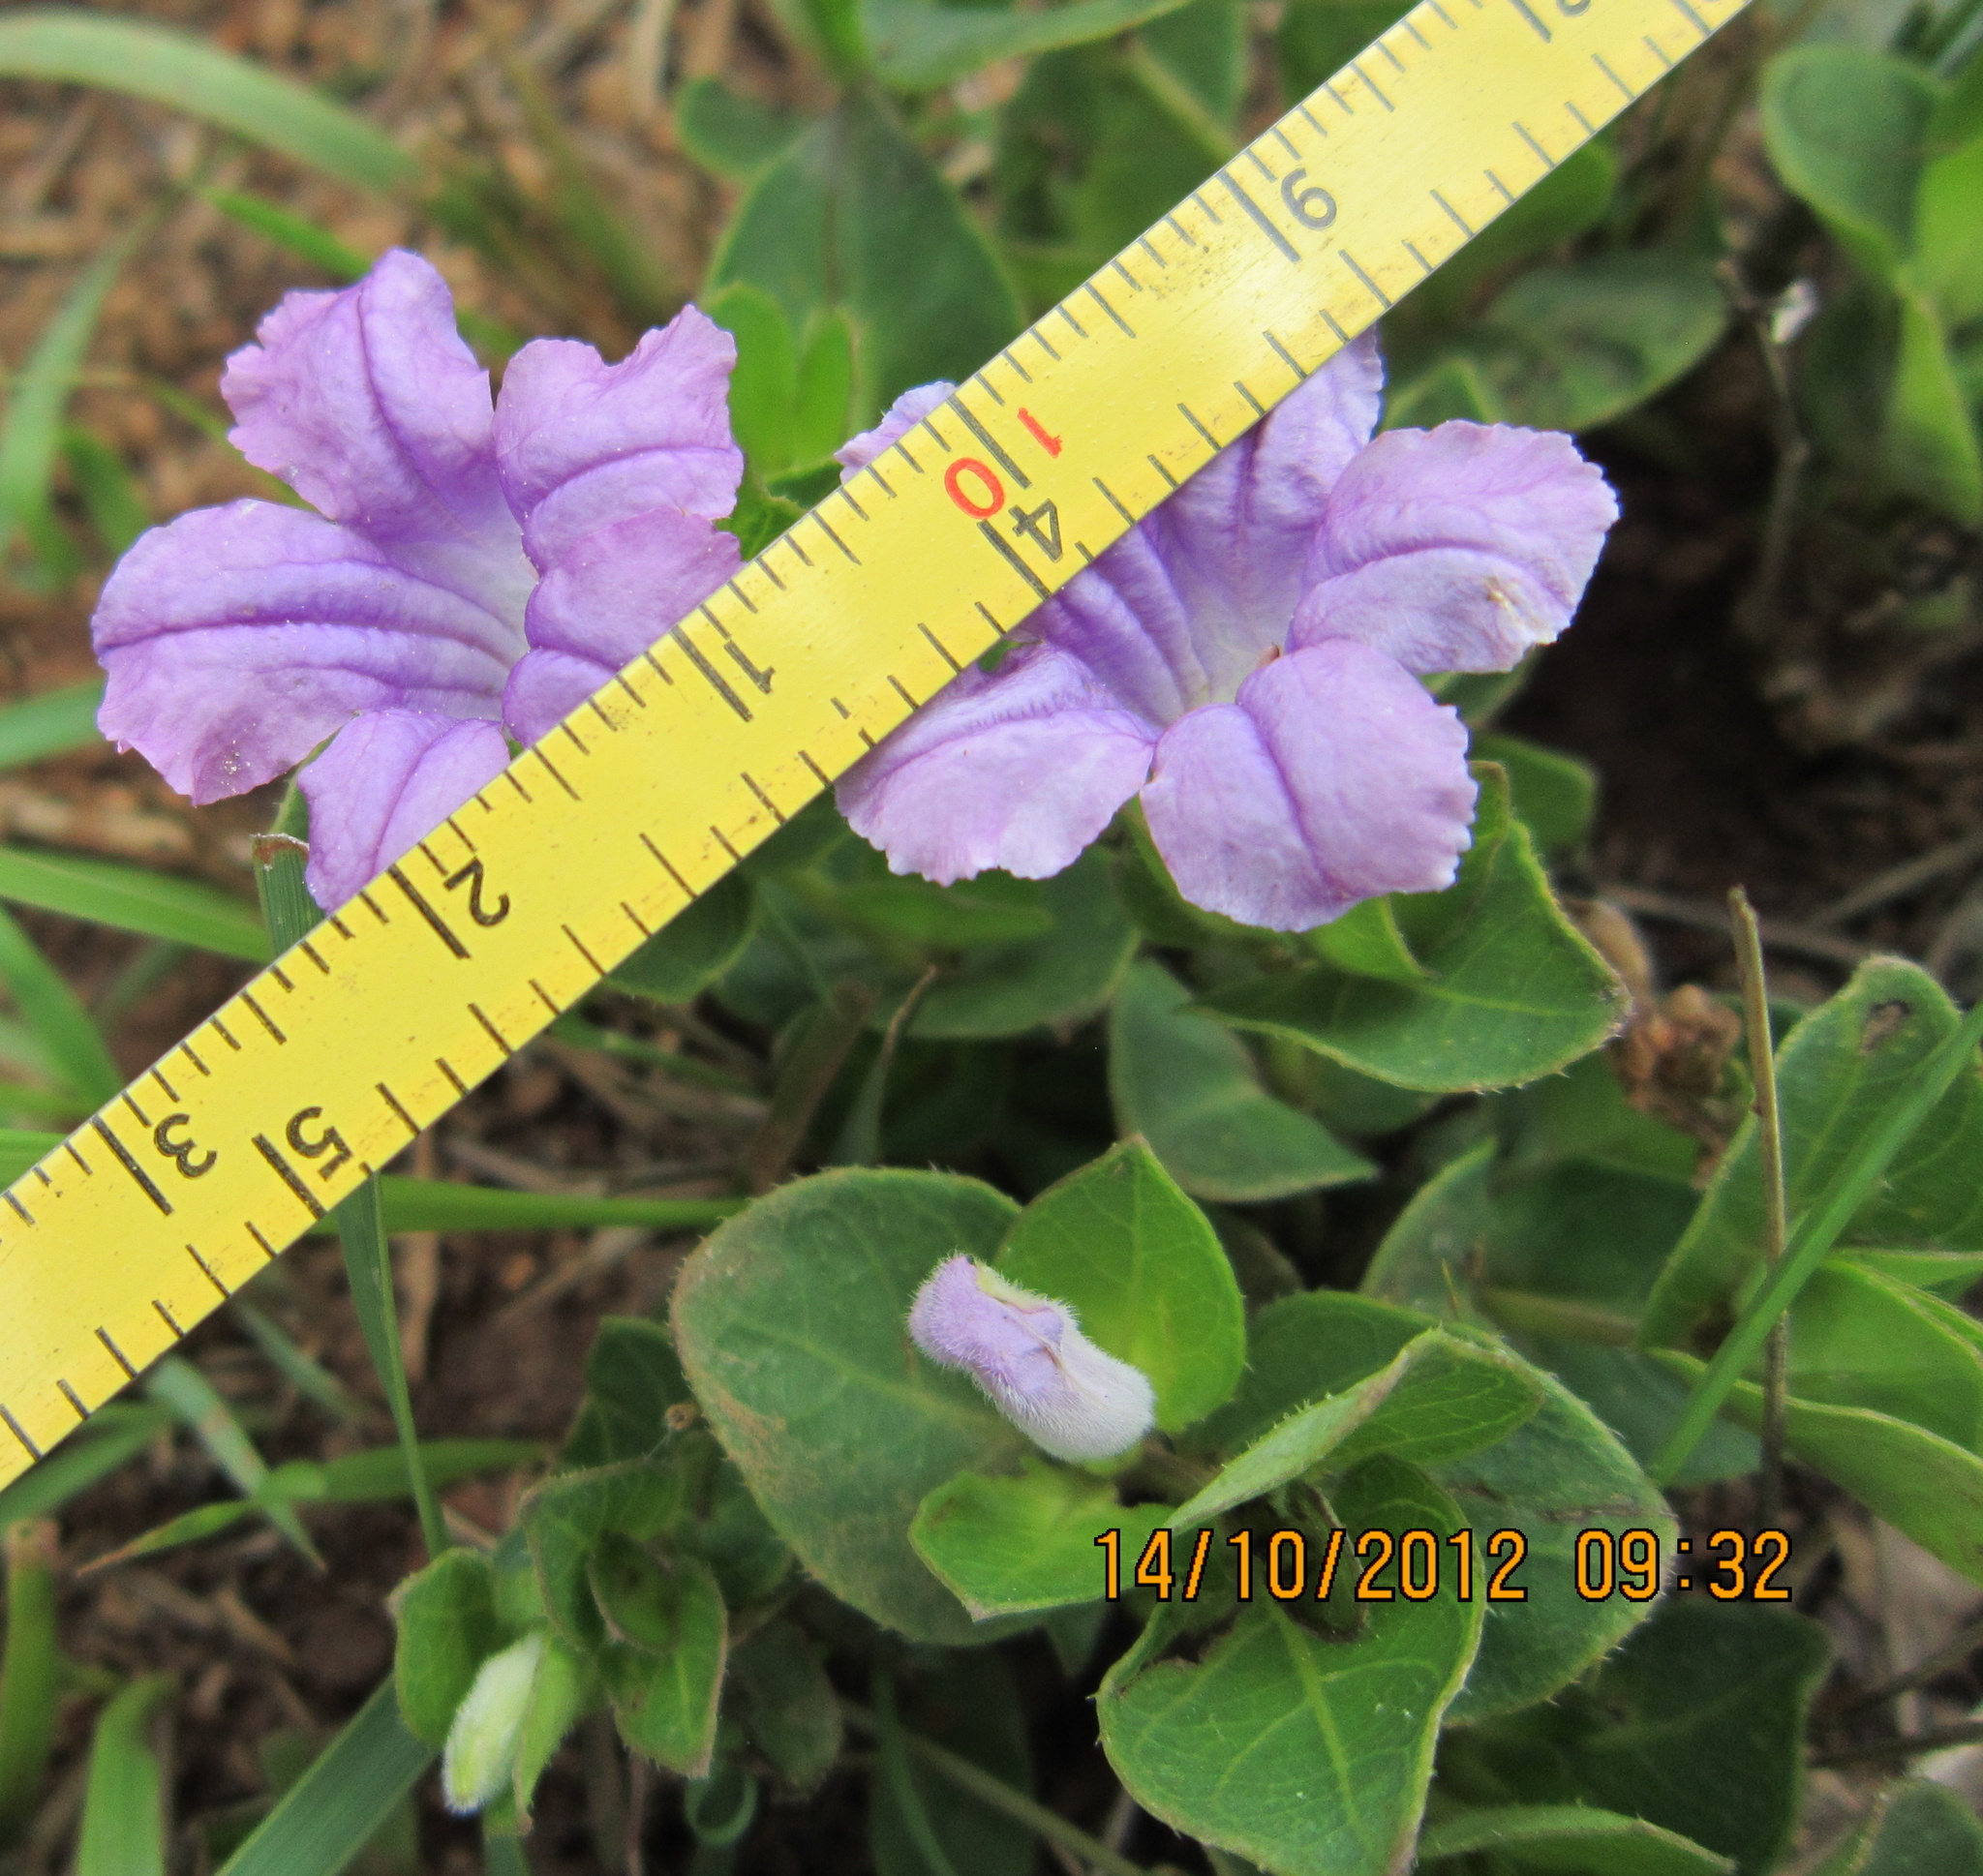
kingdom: Plantae
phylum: Tracheophyta
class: Magnoliopsida
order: Lamiales
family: Acanthaceae
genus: Ruellia
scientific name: Ruellia cordata
